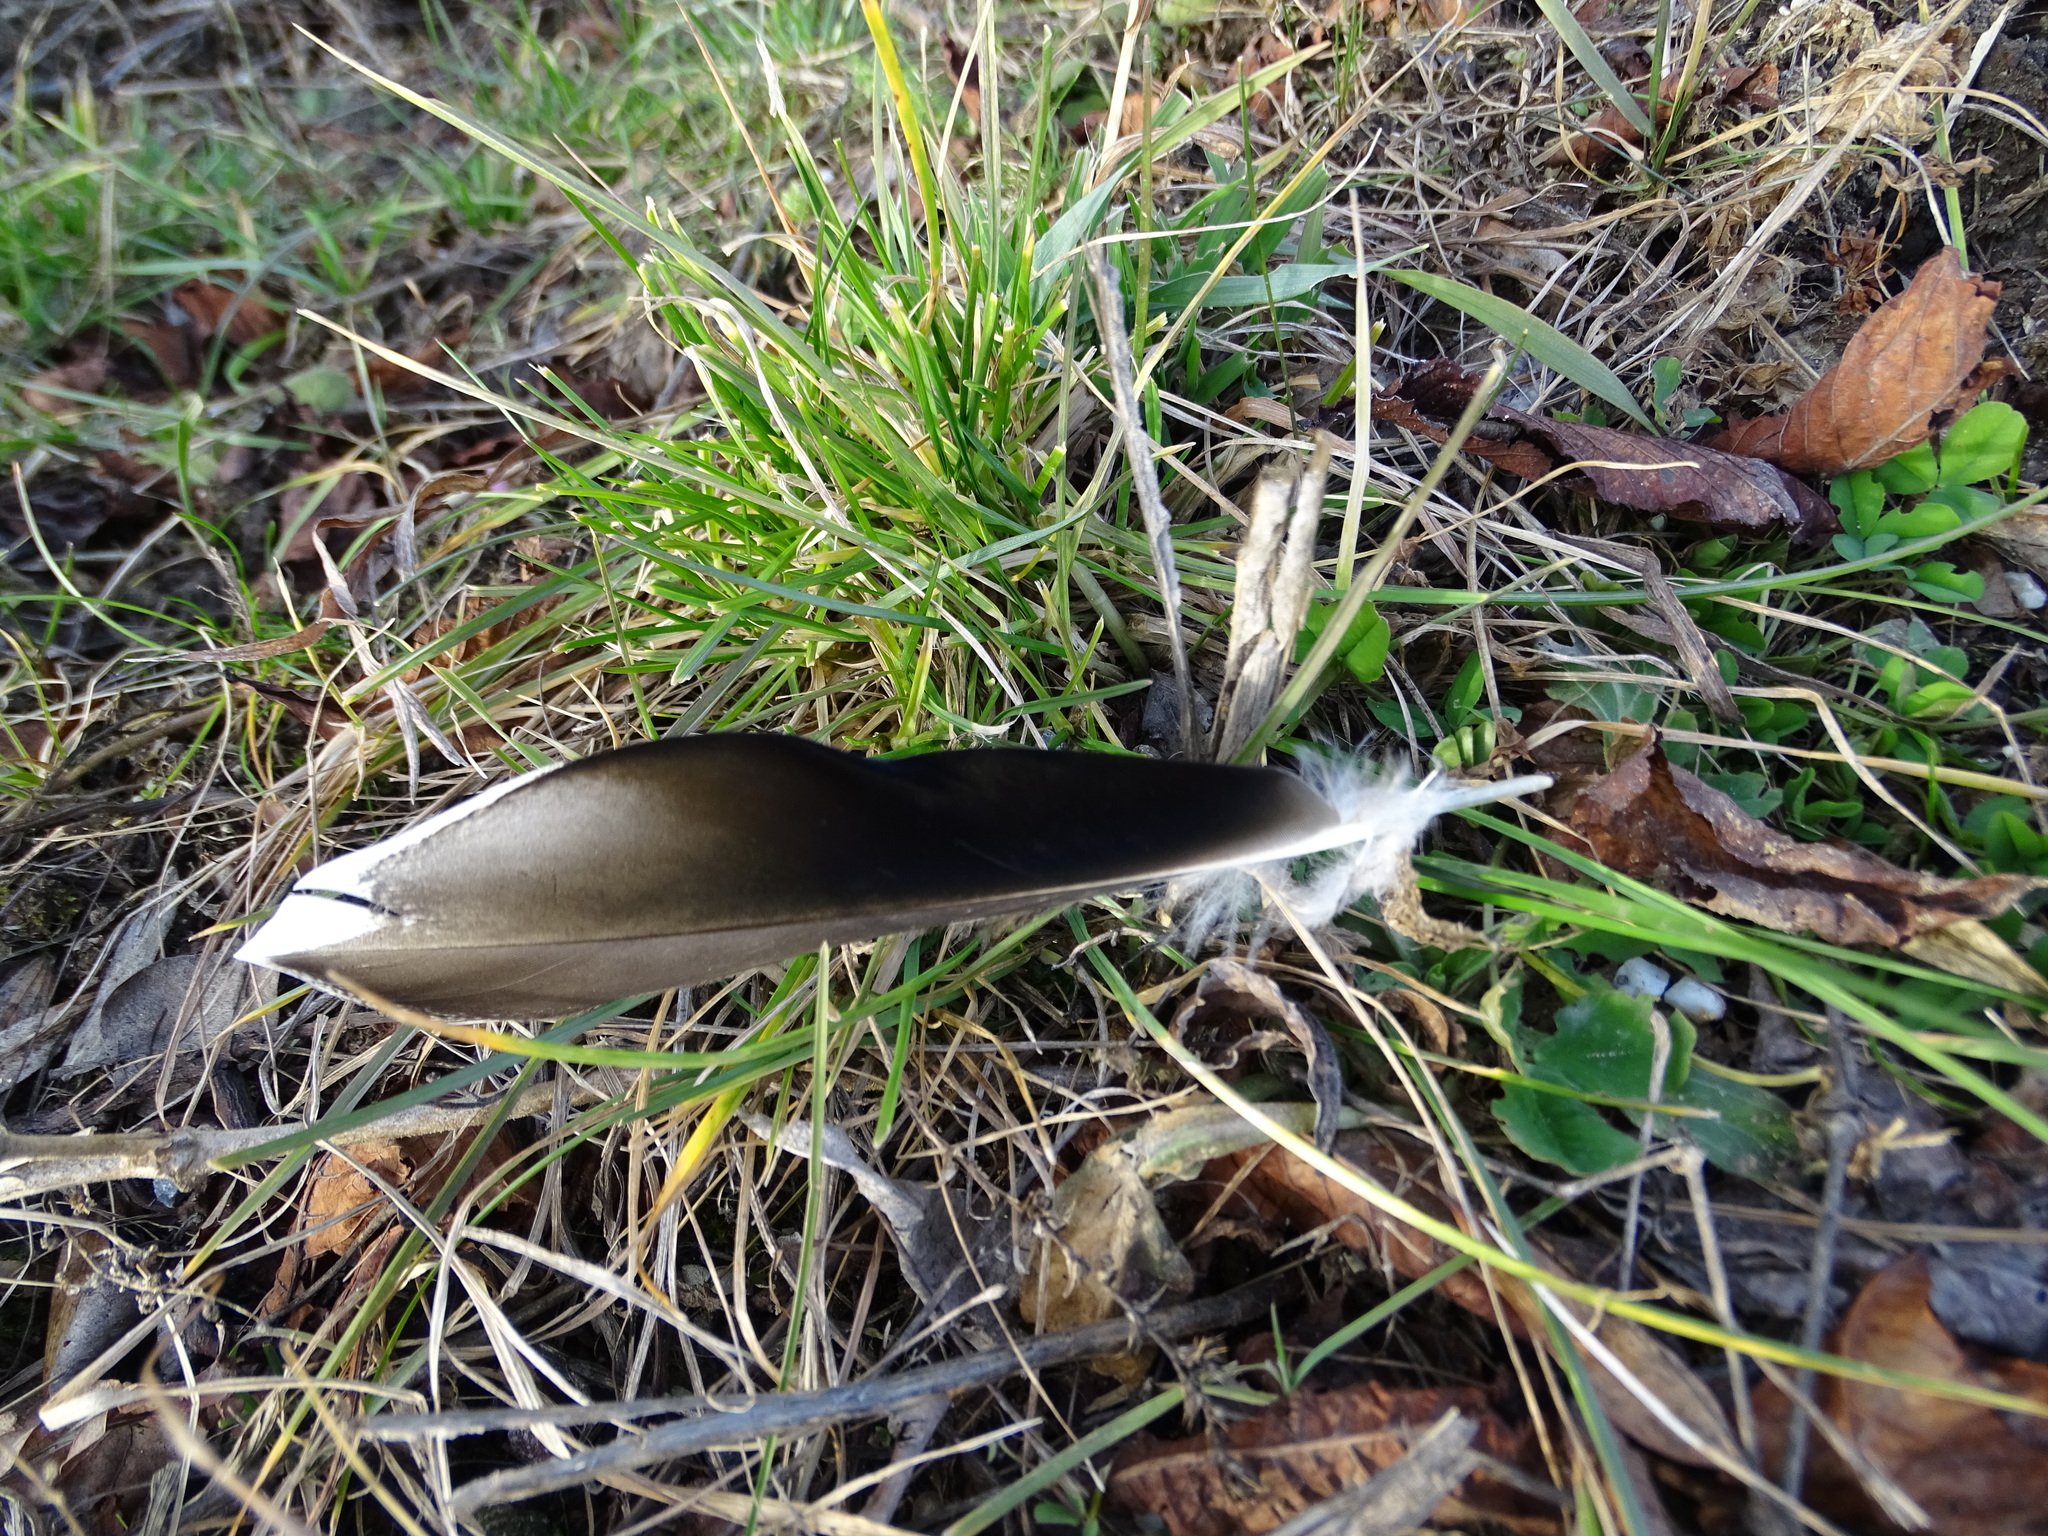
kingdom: Animalia
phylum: Chordata
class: Aves
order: Anseriformes
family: Anatidae
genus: Anas
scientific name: Anas platyrhynchos
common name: Mallard
